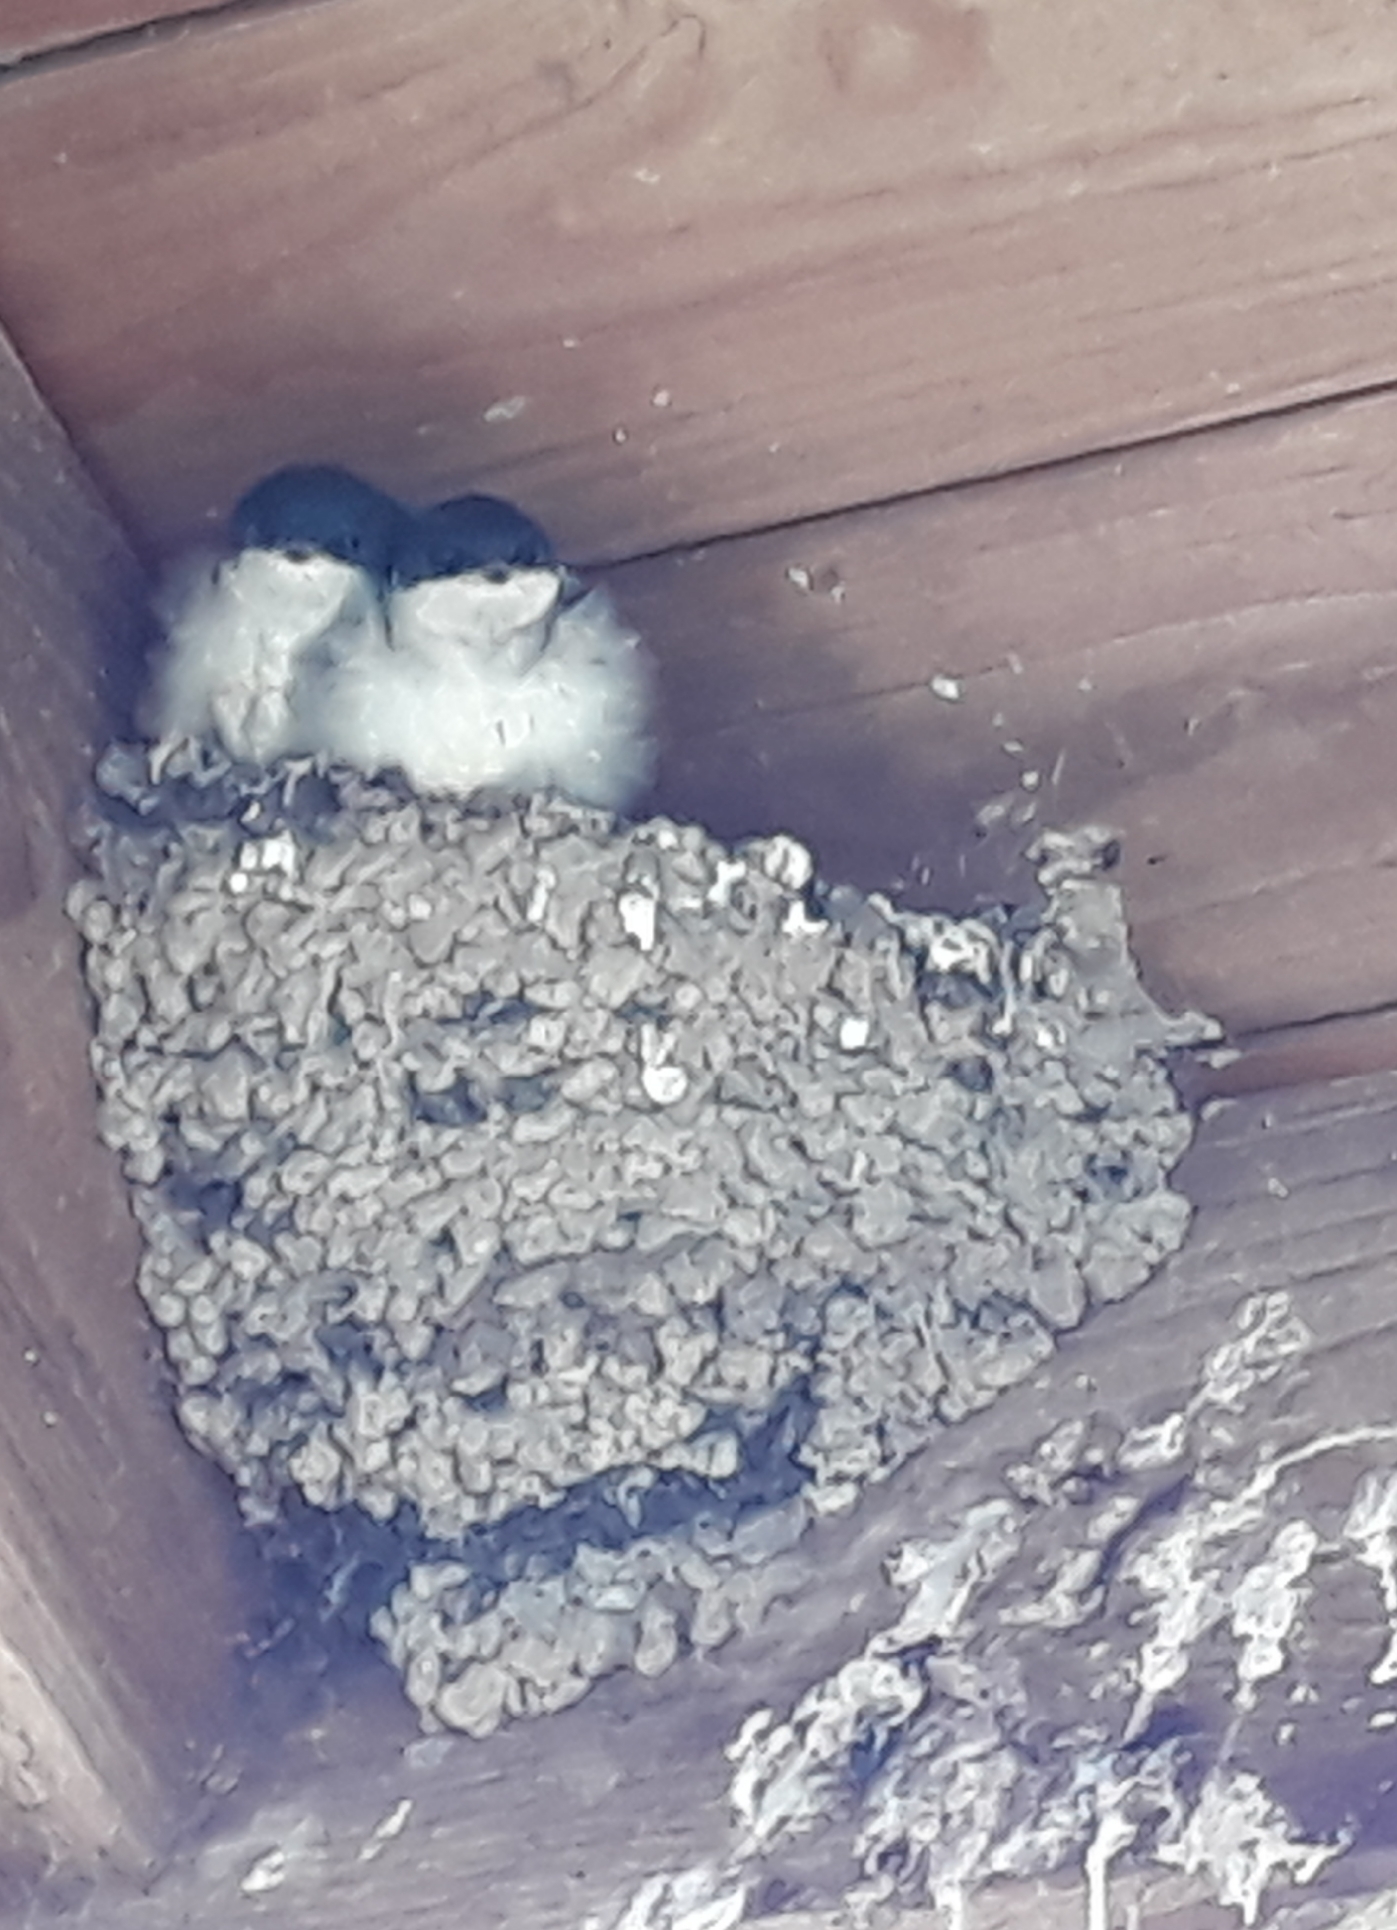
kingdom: Animalia
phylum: Chordata
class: Aves
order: Passeriformes
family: Hirundinidae
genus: Delichon
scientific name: Delichon urbicum
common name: Common house martin
